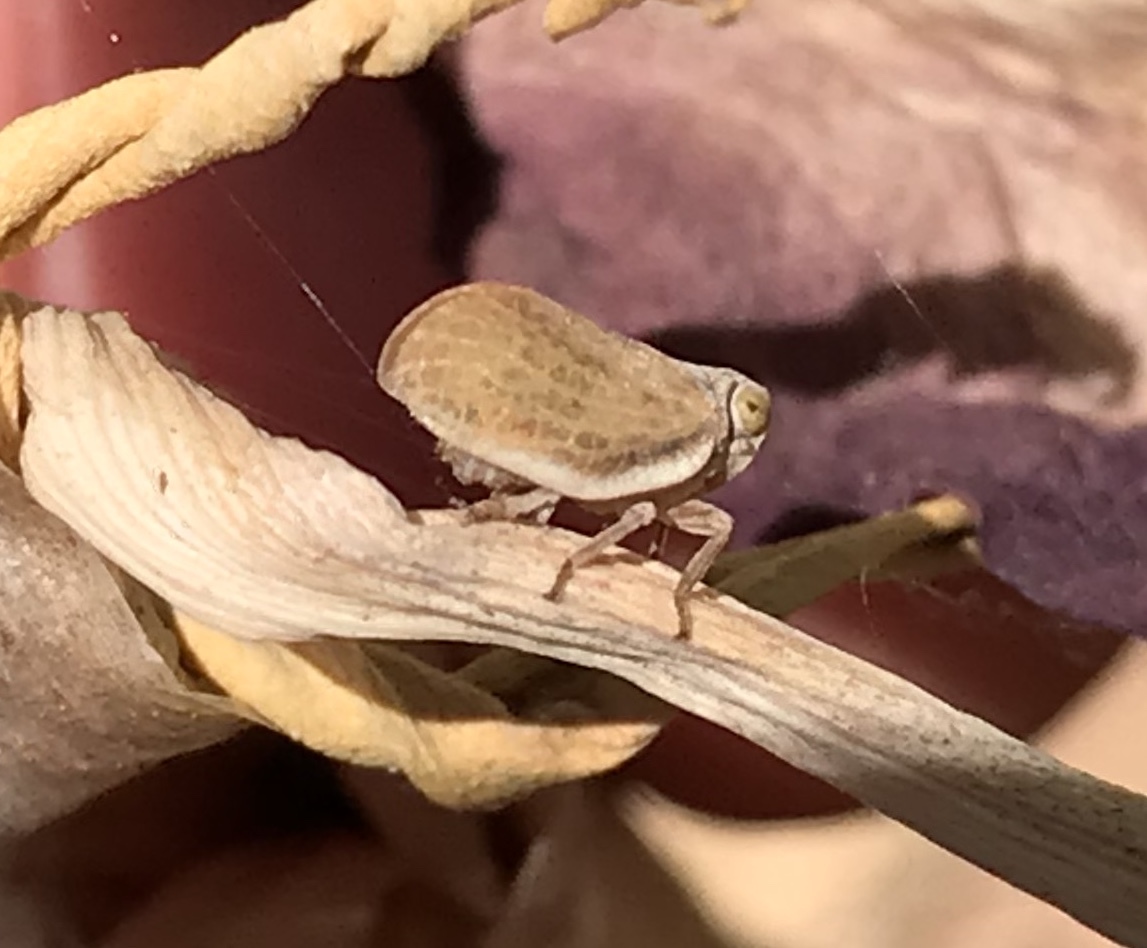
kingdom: Animalia
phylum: Arthropoda
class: Insecta
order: Hemiptera
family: Issidae
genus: Agalmatium
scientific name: Agalmatium bilobum
